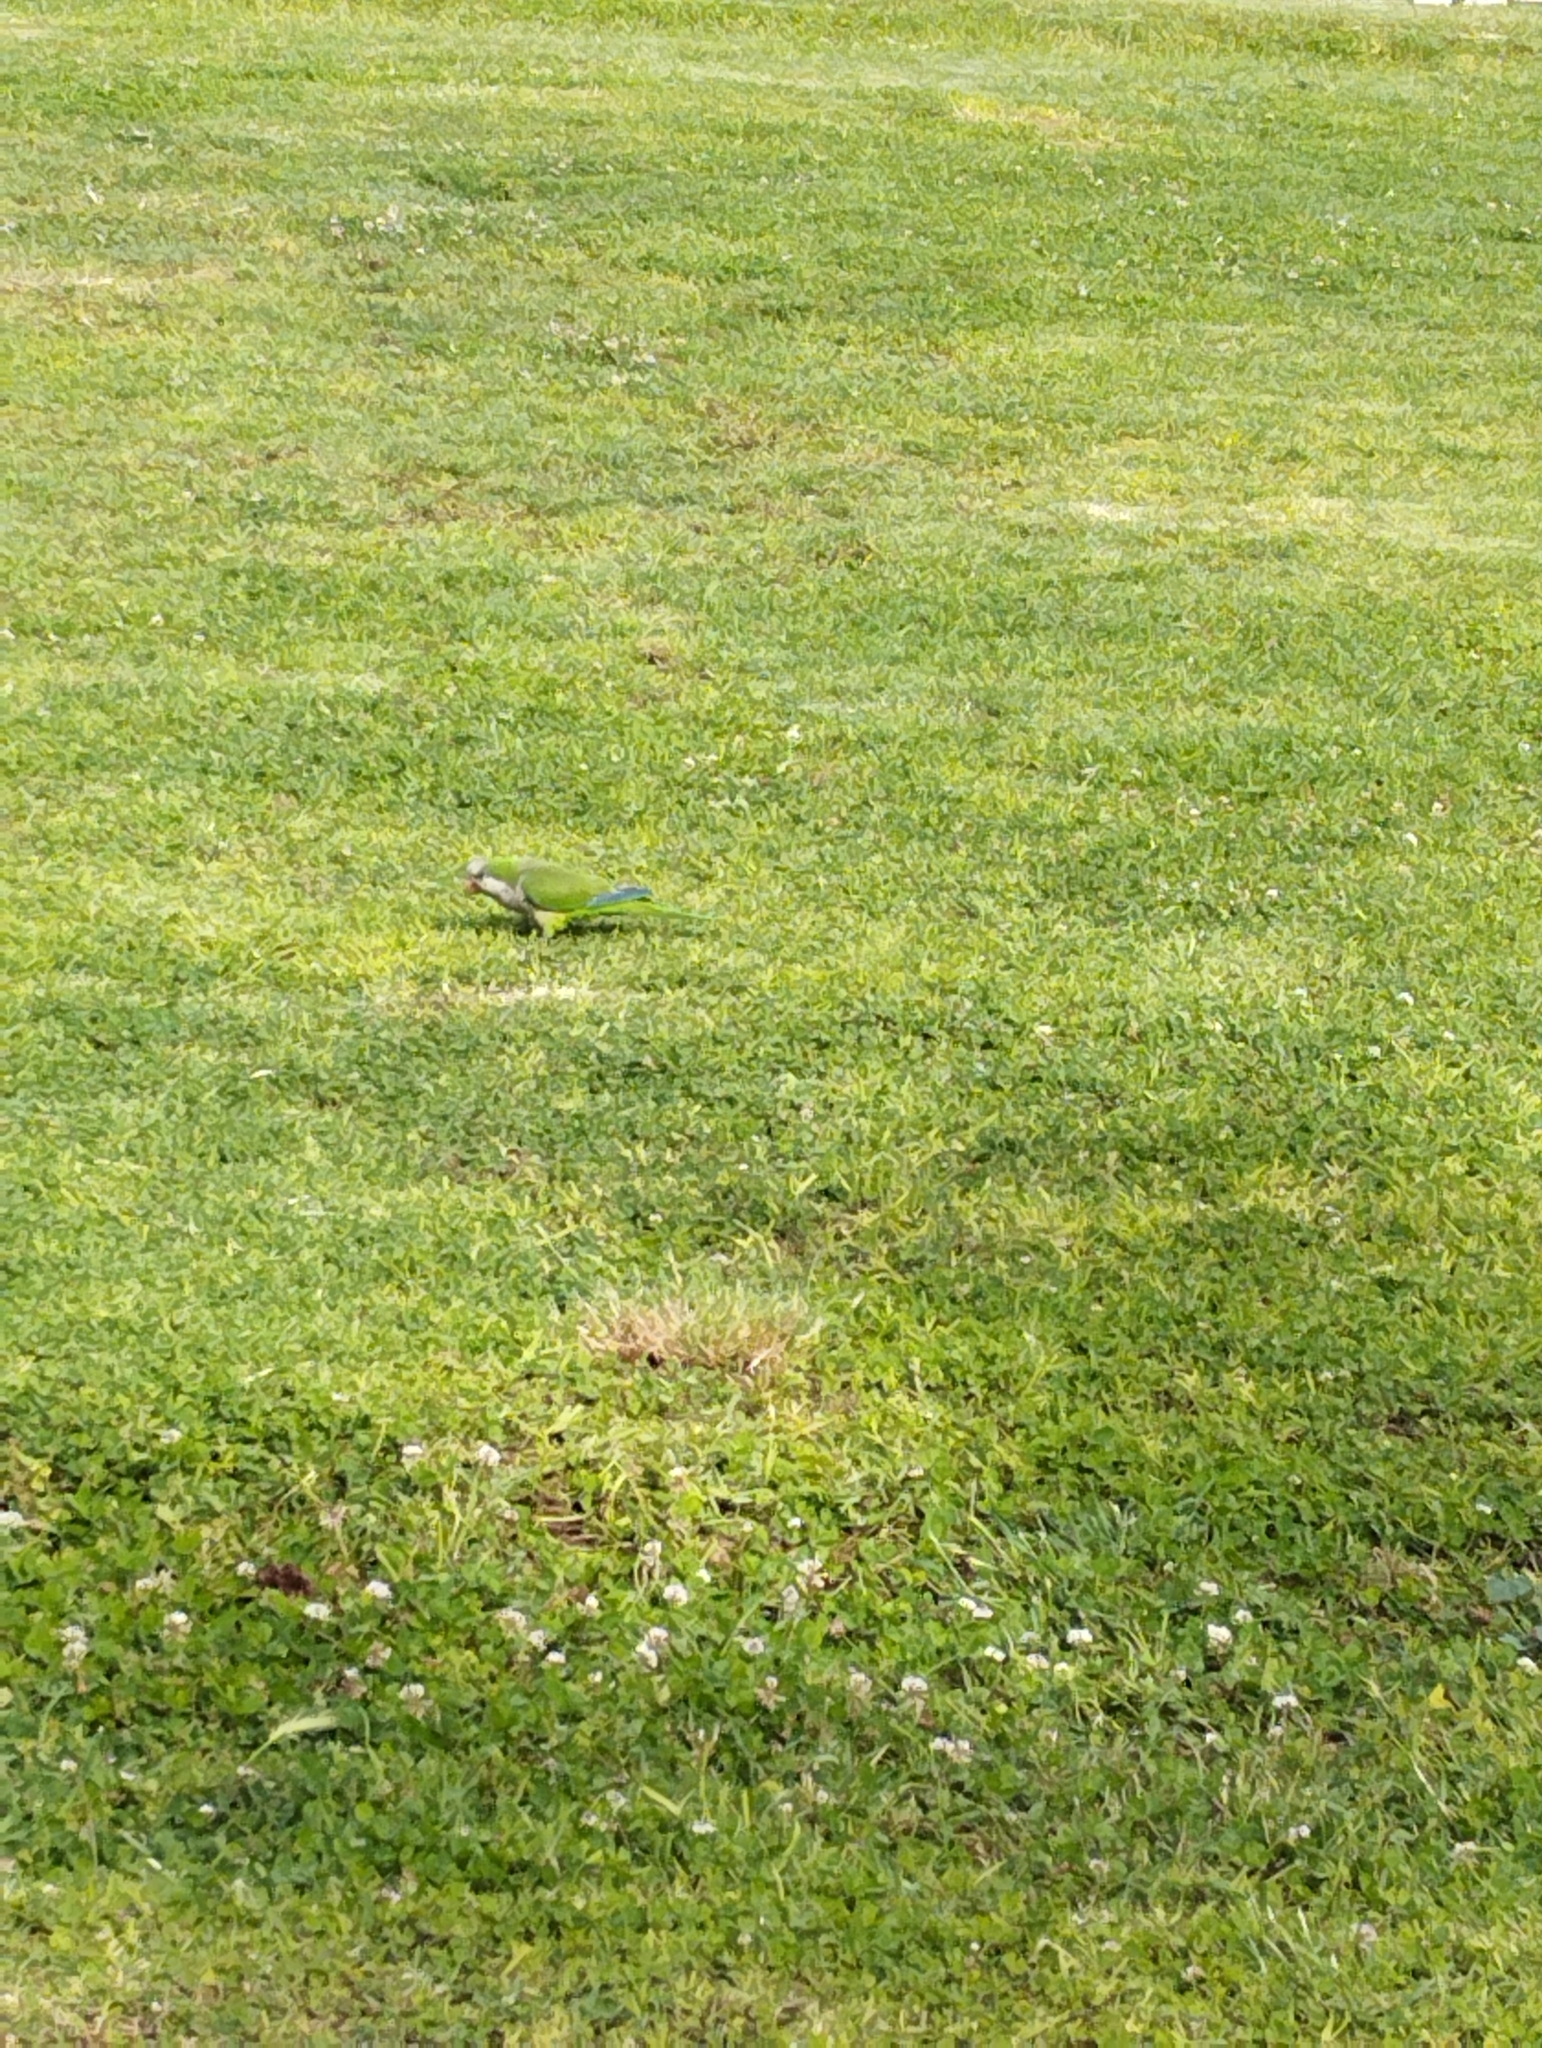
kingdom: Animalia
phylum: Chordata
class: Aves
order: Psittaciformes
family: Psittacidae
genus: Myiopsitta
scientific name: Myiopsitta monachus
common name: Monk parakeet
